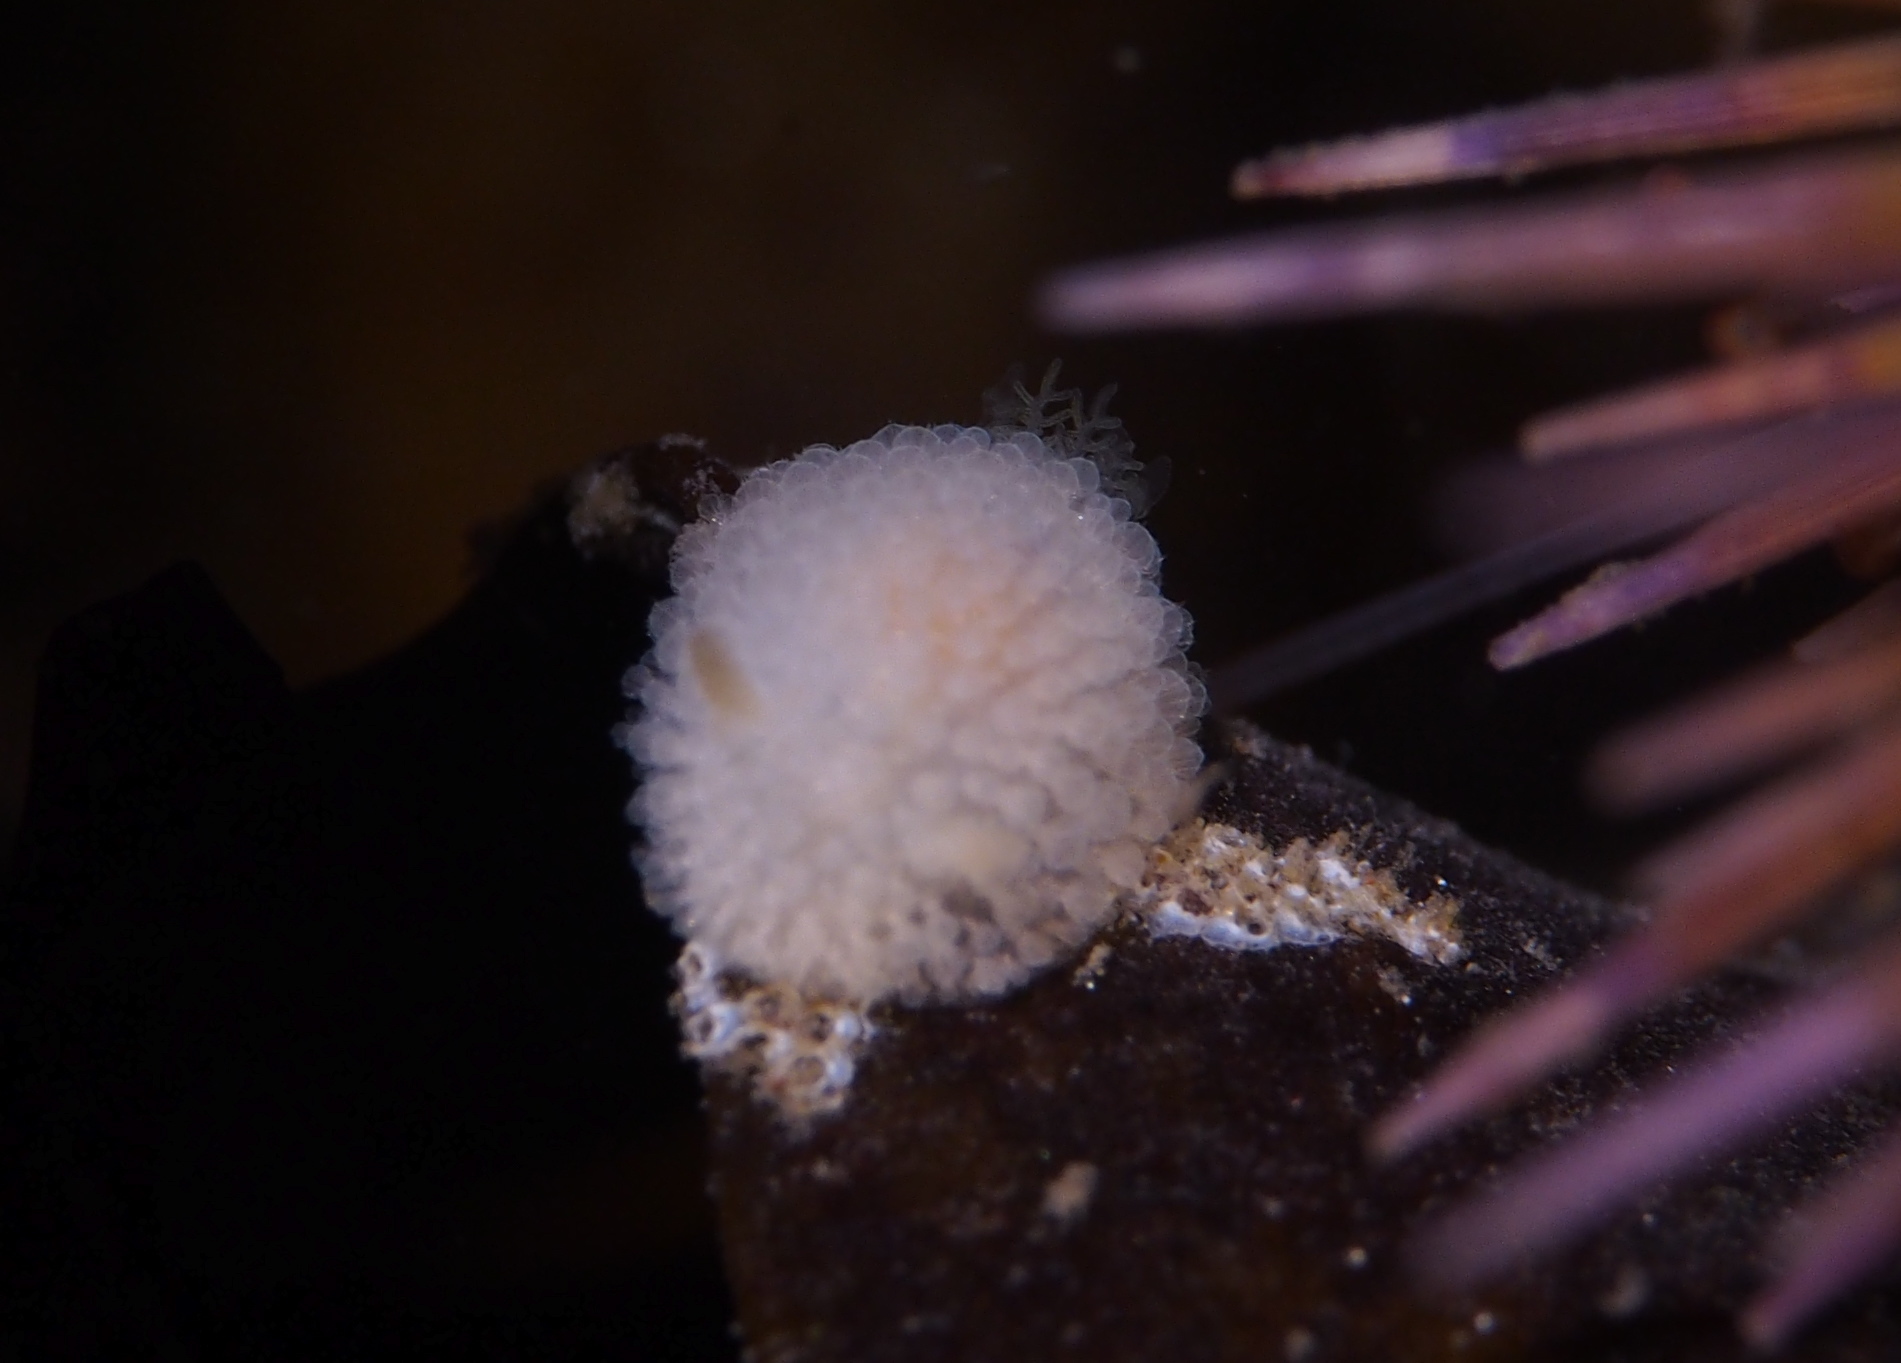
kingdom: Animalia
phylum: Mollusca
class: Gastropoda
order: Nudibranchia
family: Onchidorididae
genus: Onchidoris
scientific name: Onchidoris muricata
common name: Rough doris
